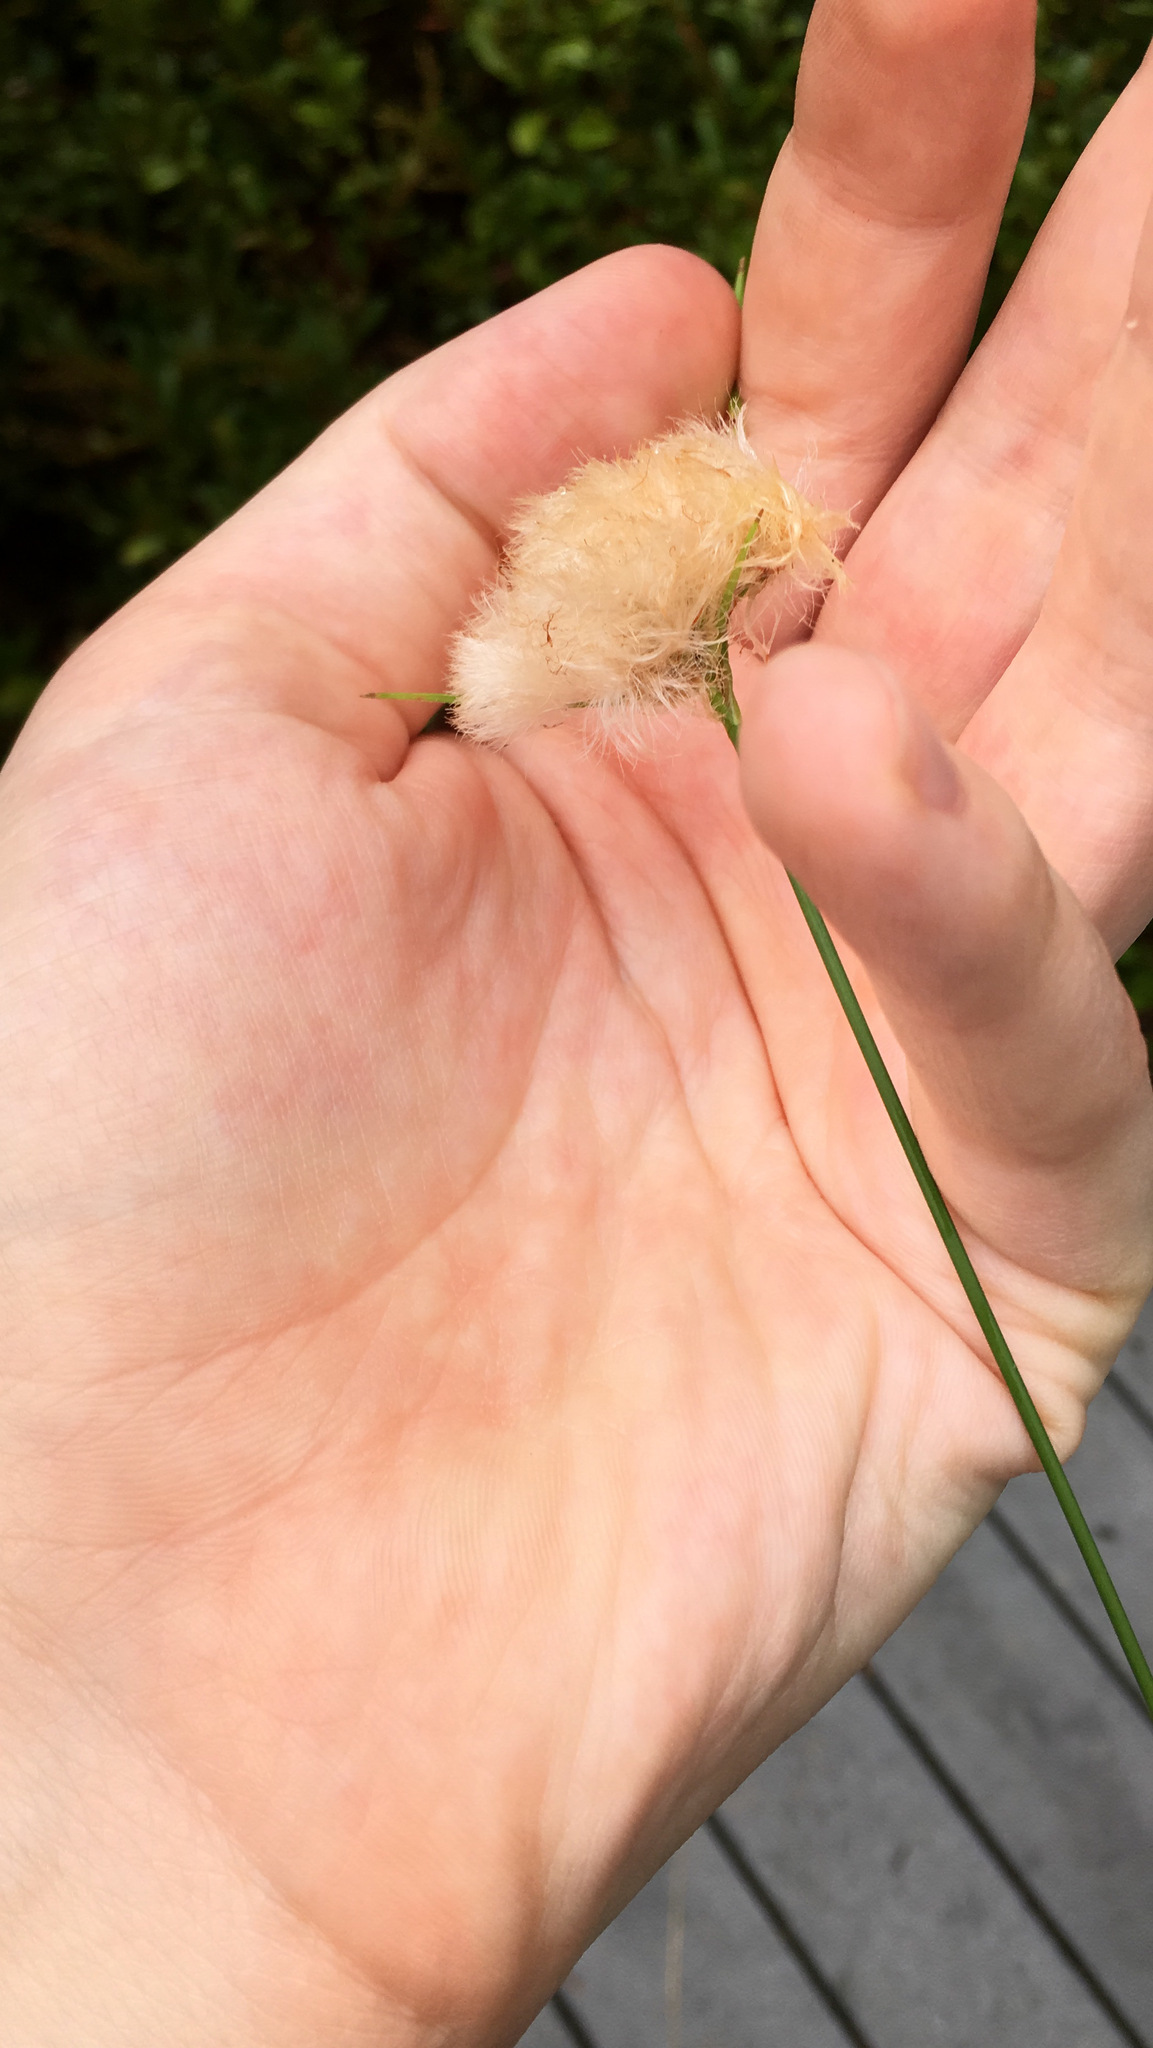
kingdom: Plantae
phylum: Tracheophyta
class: Liliopsida
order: Poales
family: Cyperaceae
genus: Eriophorum
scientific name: Eriophorum virginicum
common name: Tawny cottongrass
